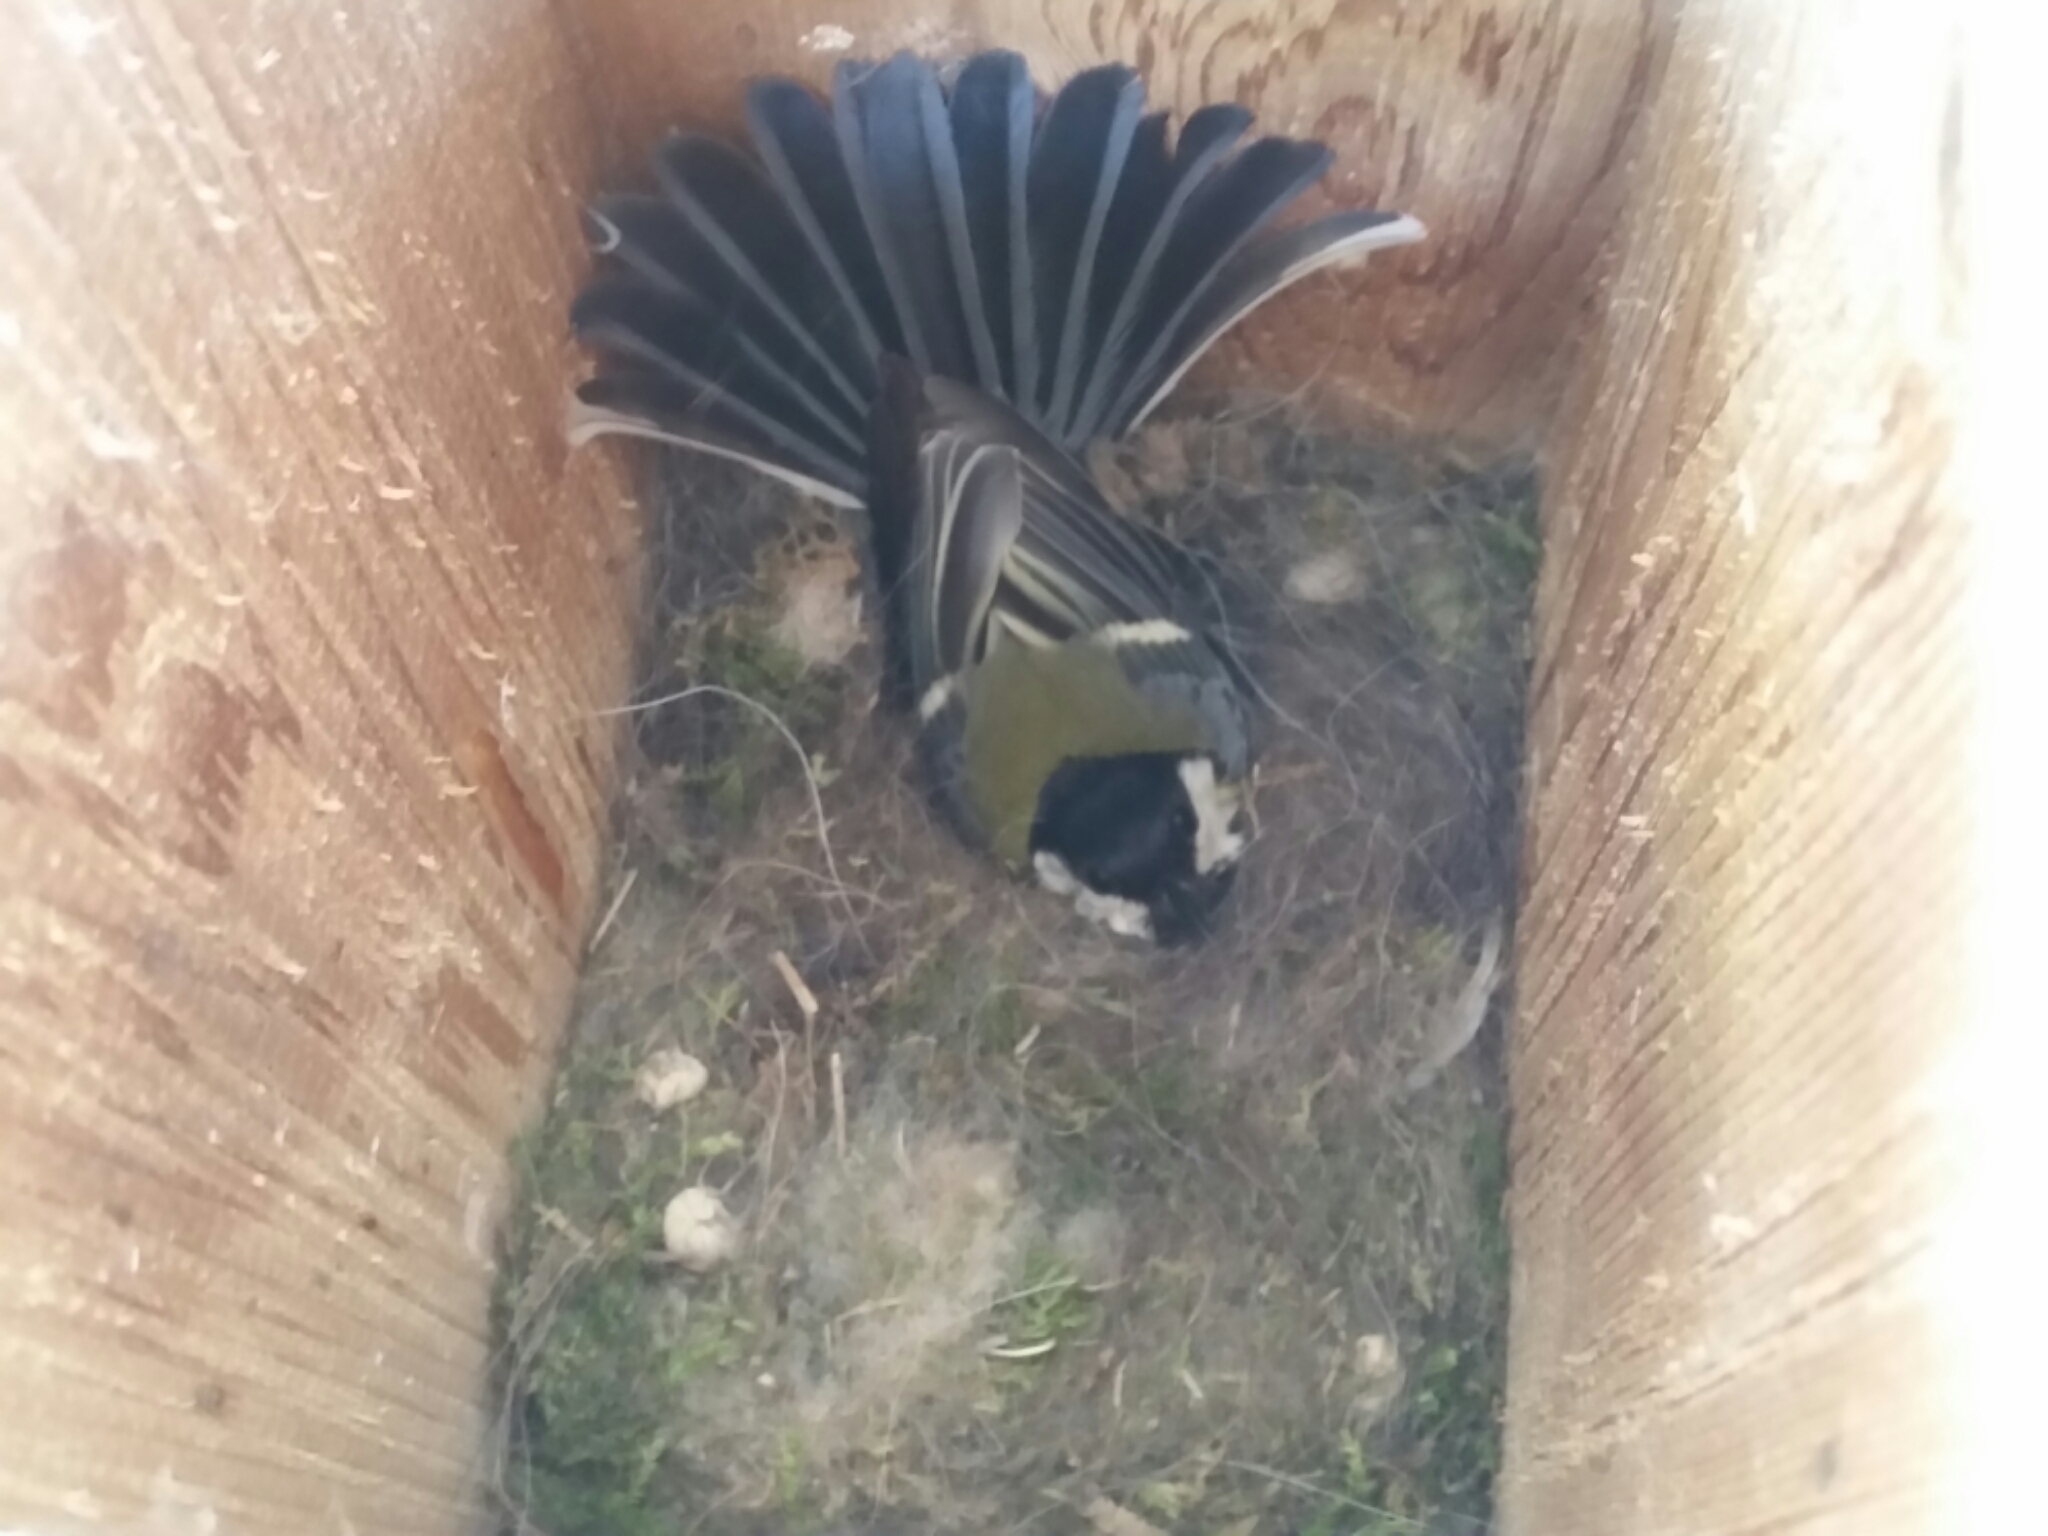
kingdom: Animalia
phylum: Chordata
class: Aves
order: Passeriformes
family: Paridae
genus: Parus
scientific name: Parus major
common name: Great tit
